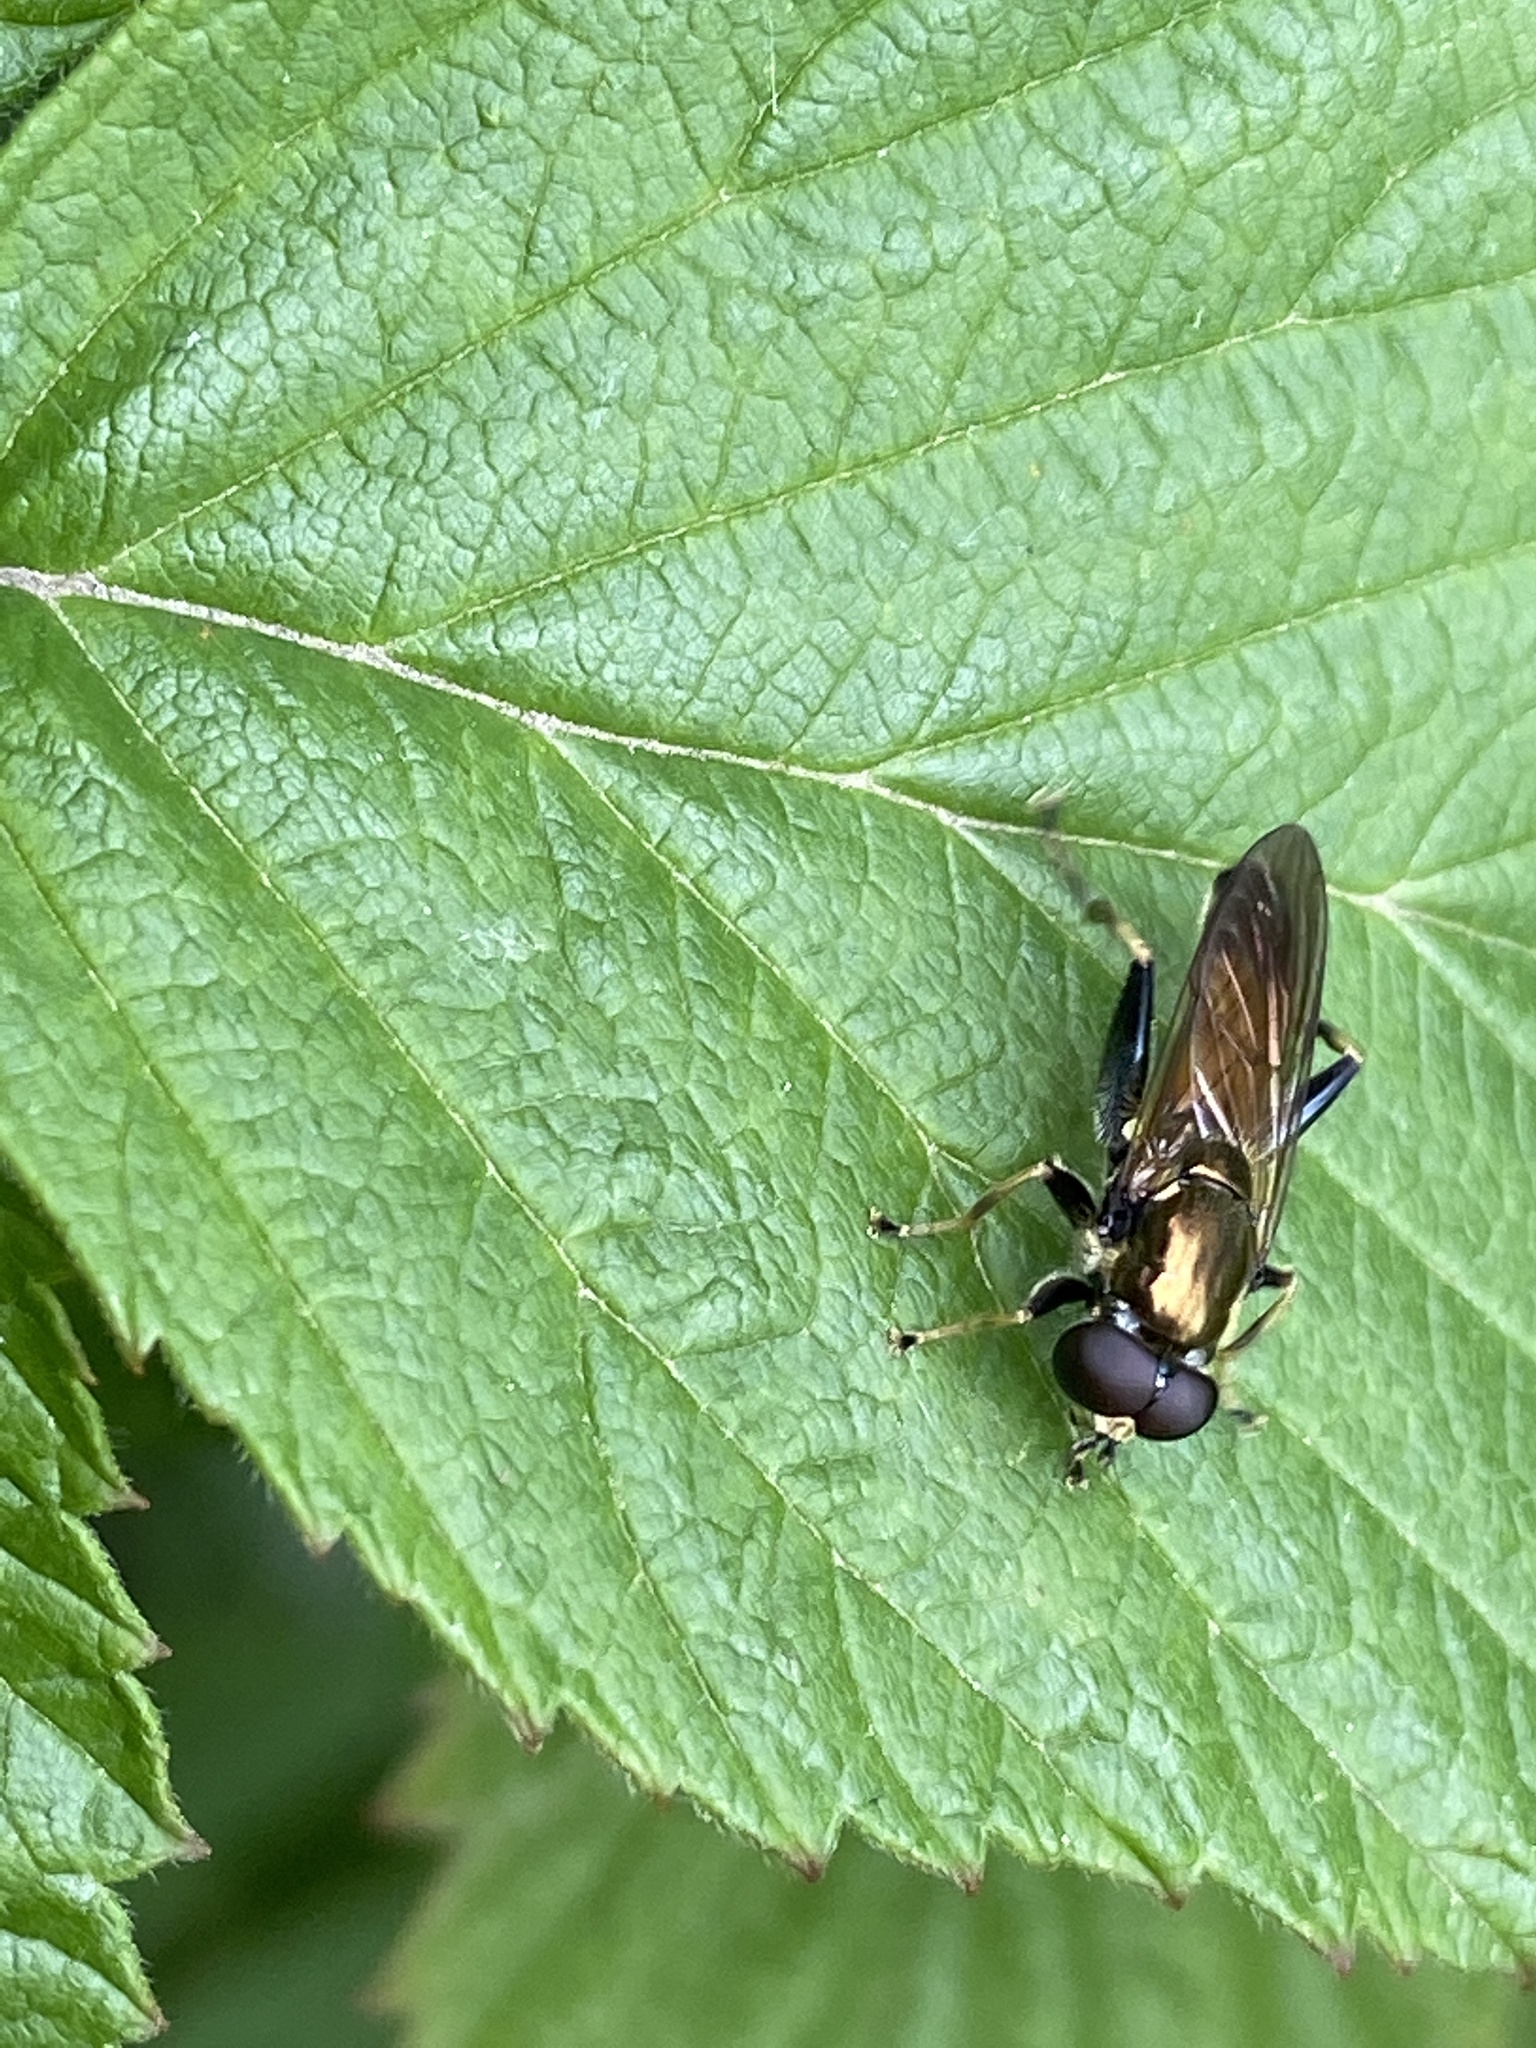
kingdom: Animalia
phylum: Arthropoda
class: Insecta
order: Diptera
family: Syrphidae
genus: Xylota
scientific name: Xylota segnis
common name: Brown-toed forest fly
